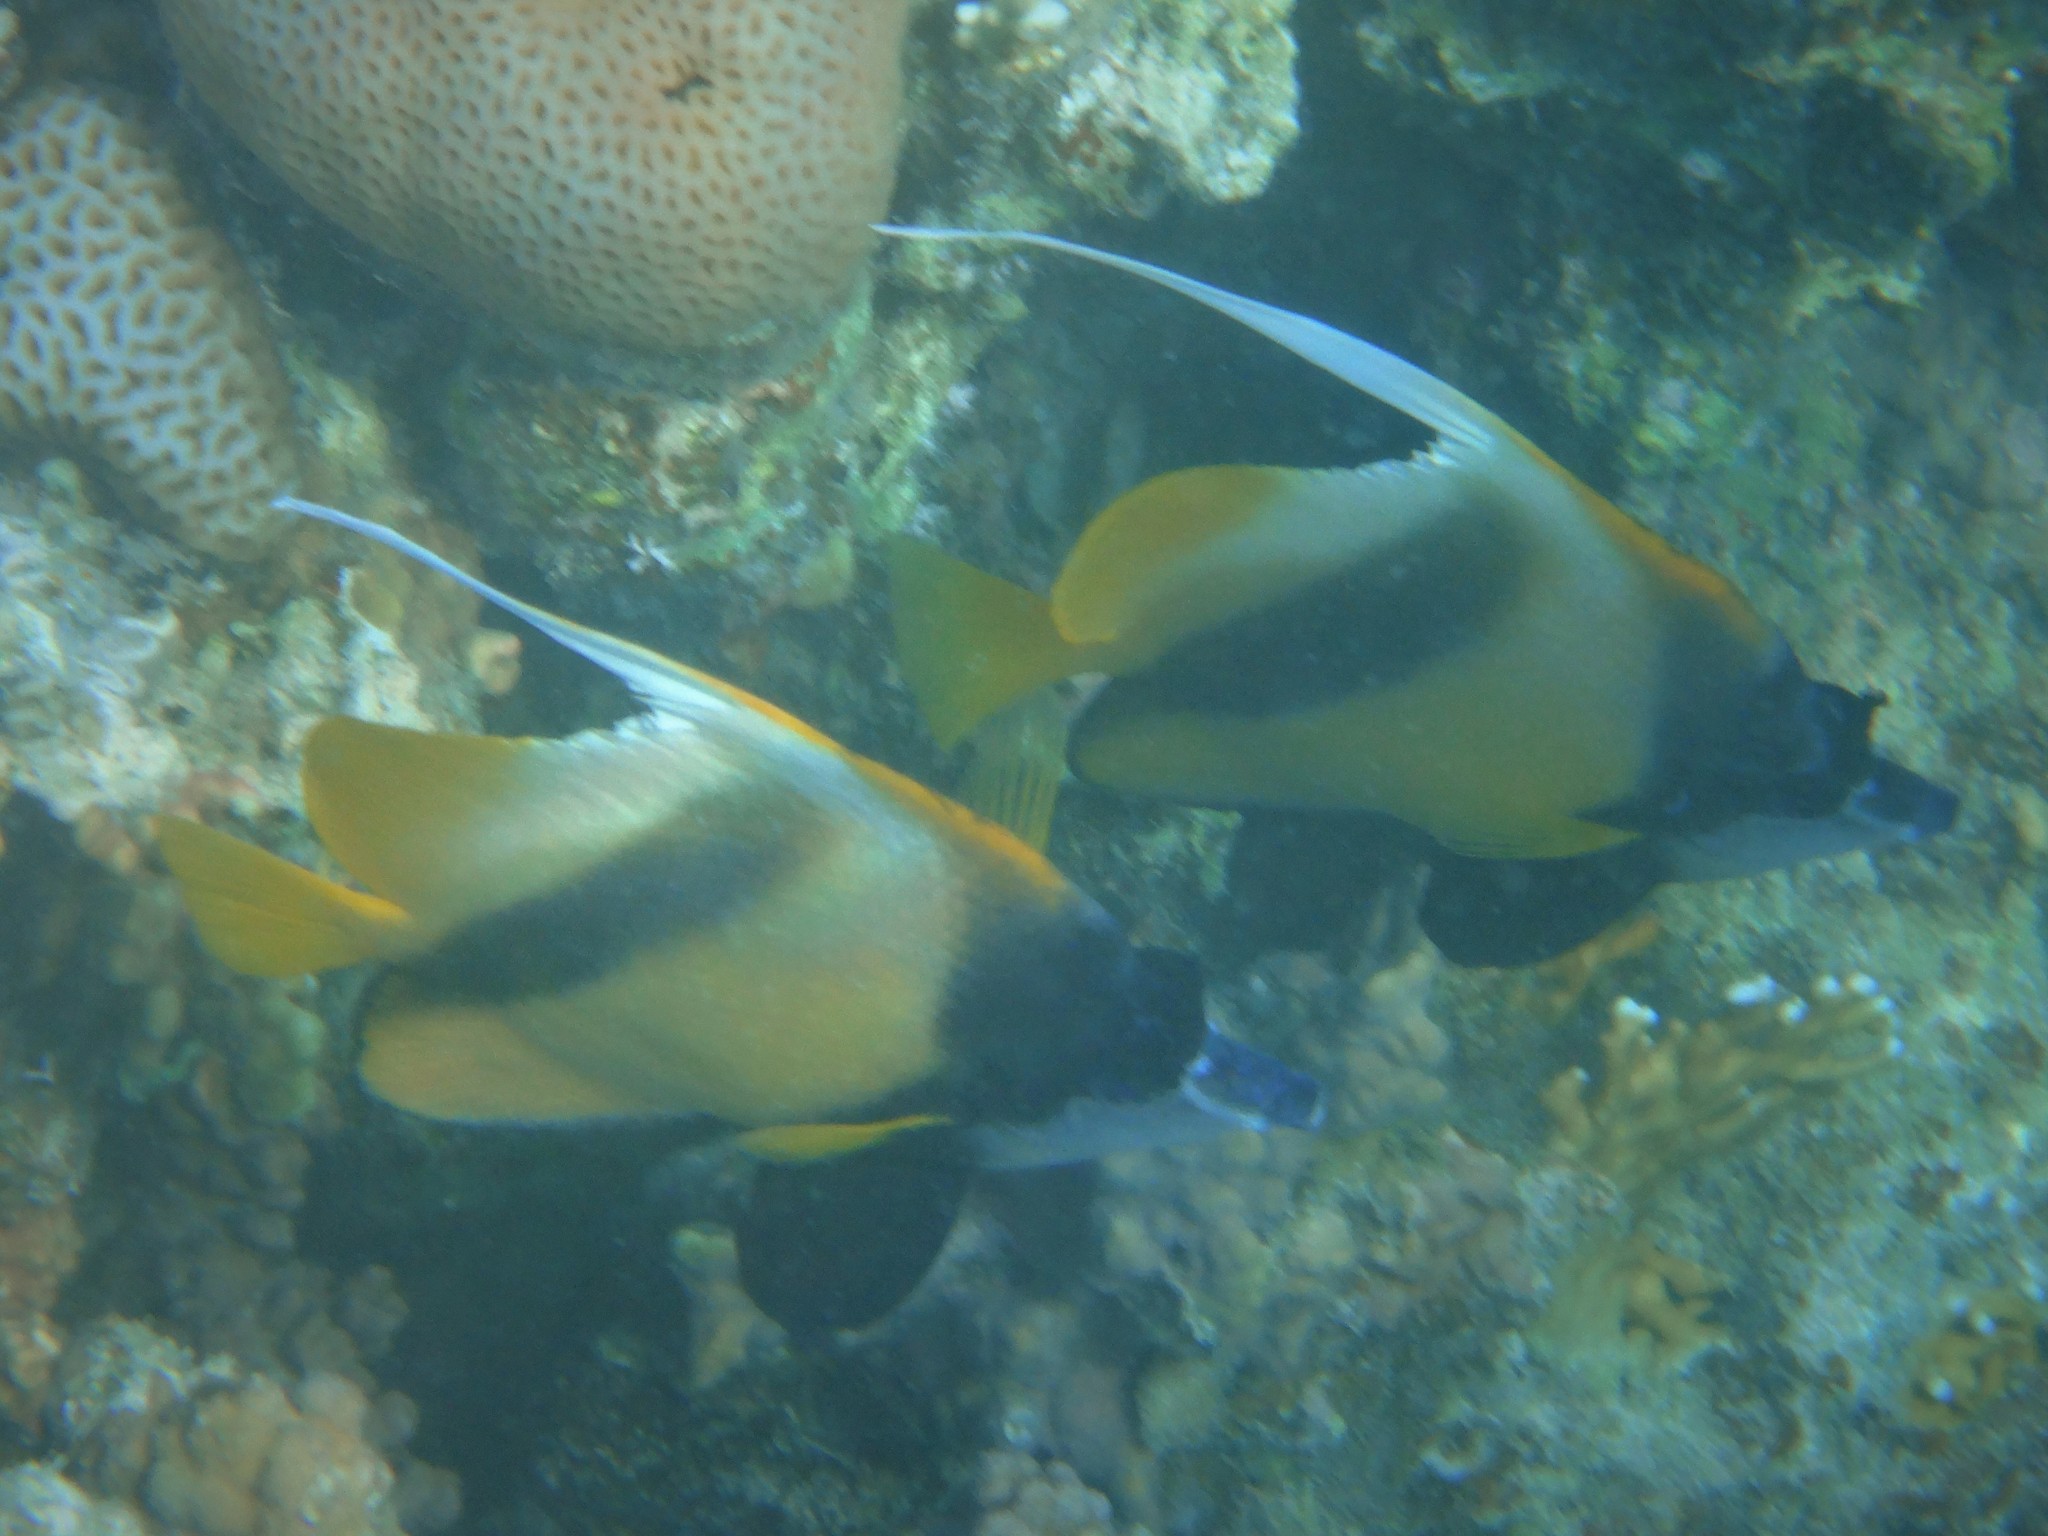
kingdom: Animalia
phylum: Chordata
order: Perciformes
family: Chaetodontidae
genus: Heniochus
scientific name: Heniochus intermedius
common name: Red sea bannerfish
